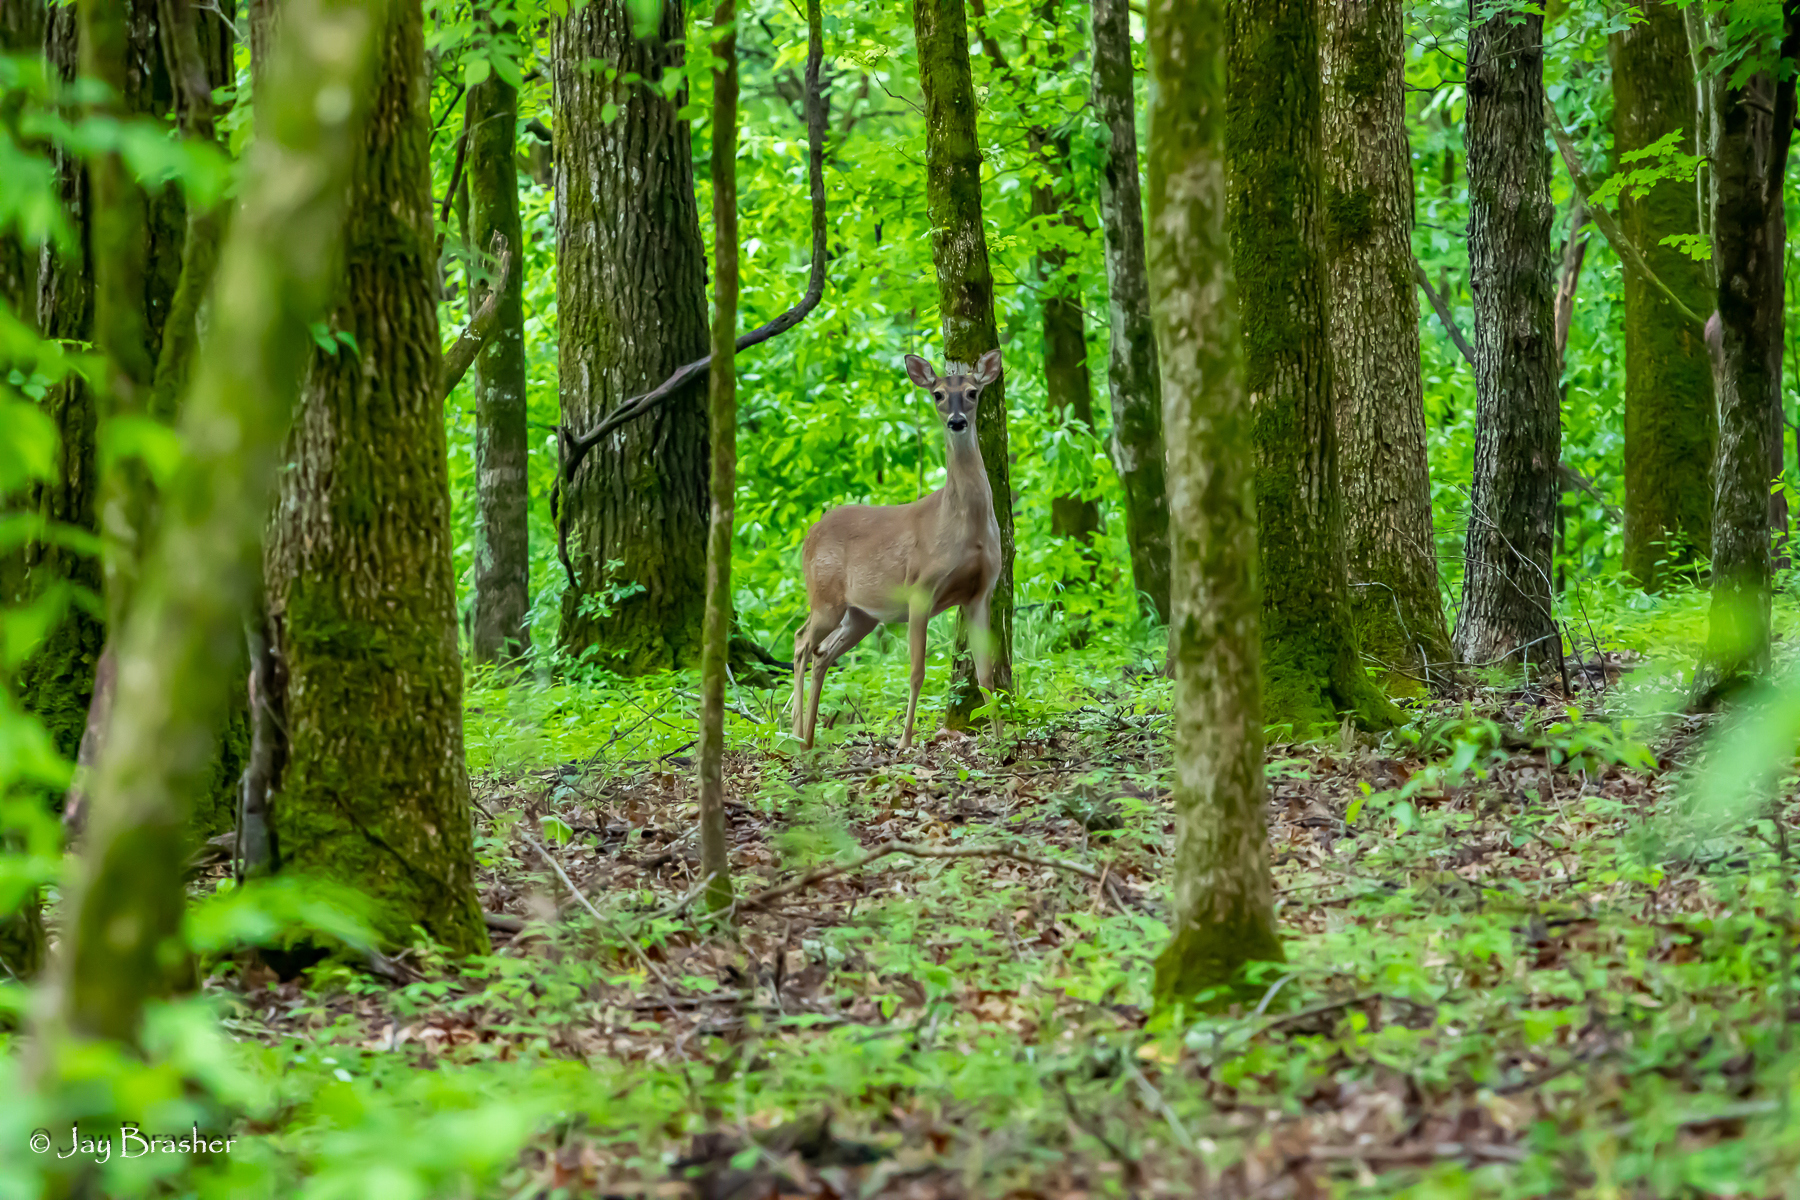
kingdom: Animalia
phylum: Chordata
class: Mammalia
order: Artiodactyla
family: Cervidae
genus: Odocoileus
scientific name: Odocoileus virginianus
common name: White-tailed deer
